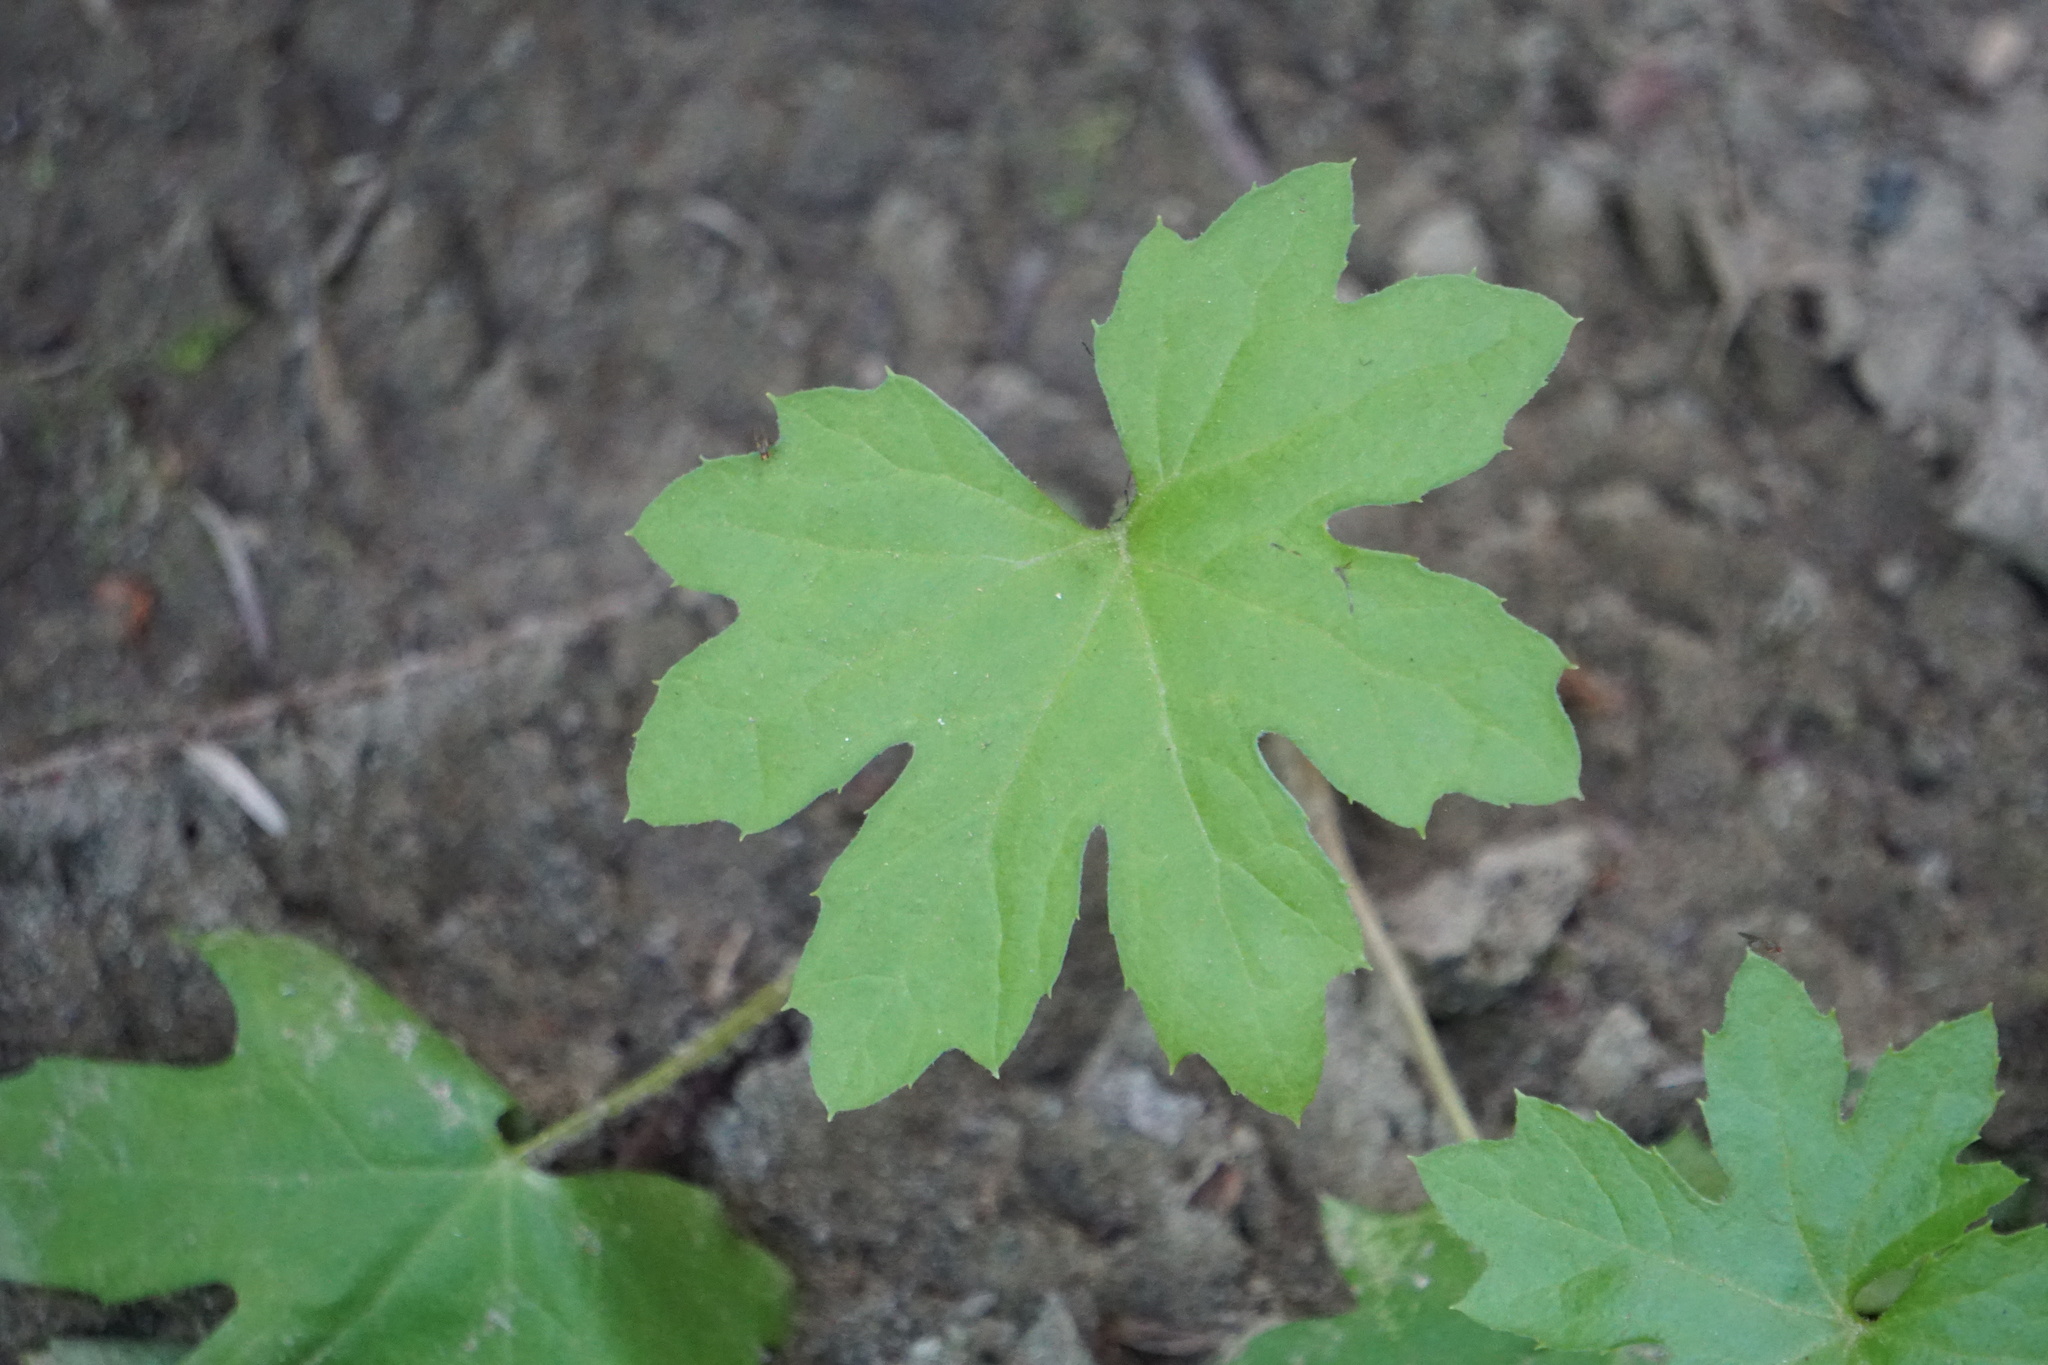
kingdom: Plantae
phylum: Tracheophyta
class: Magnoliopsida
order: Asterales
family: Asteraceae
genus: Petasites
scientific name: Petasites frigidus
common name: Arctic butterbur
